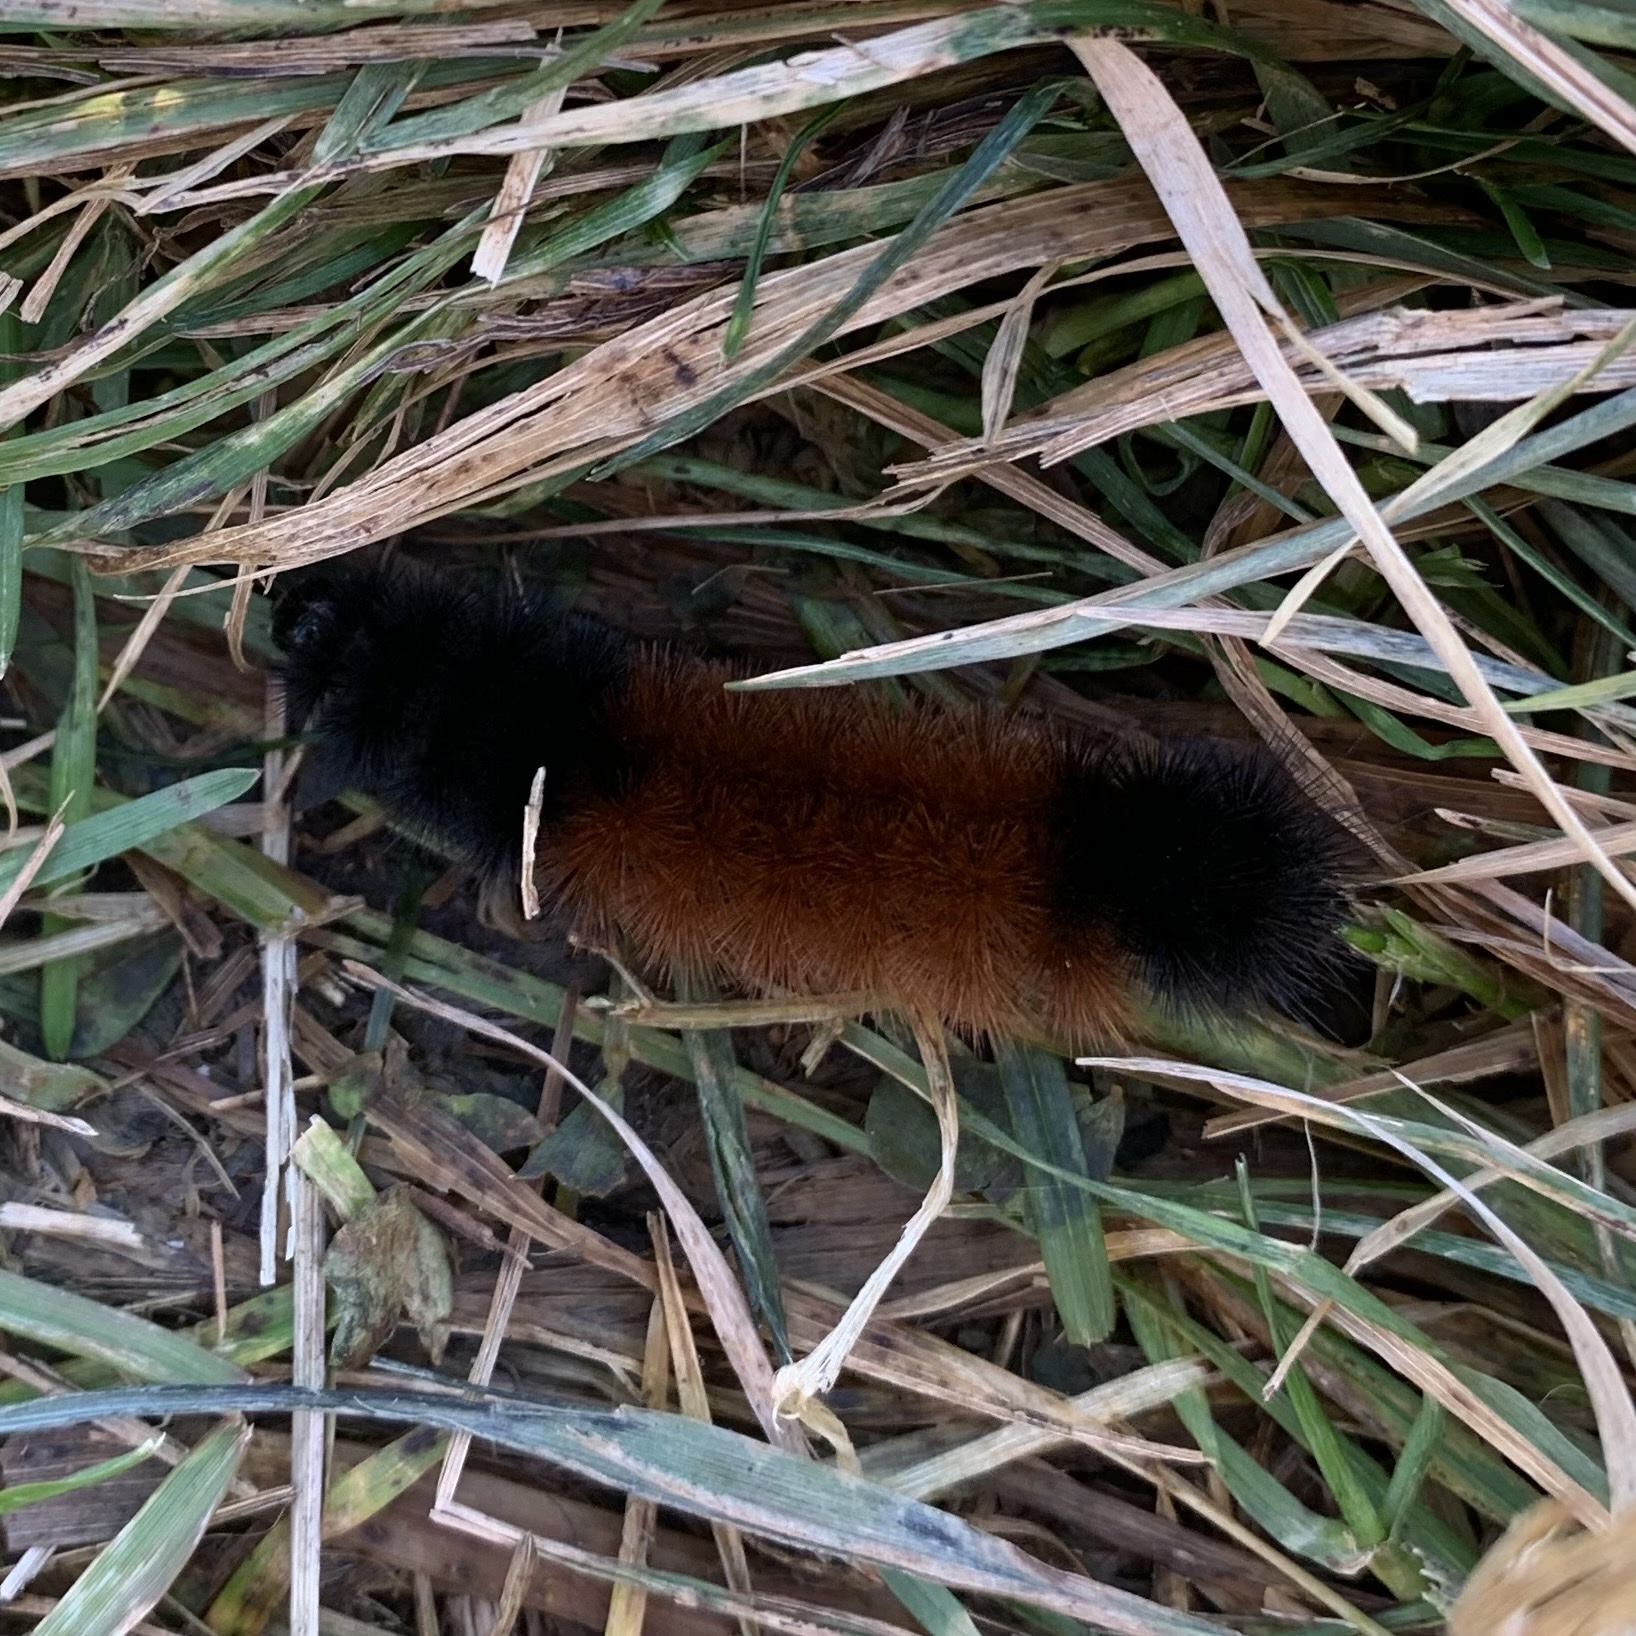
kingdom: Animalia
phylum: Arthropoda
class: Insecta
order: Lepidoptera
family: Erebidae
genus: Pyrrharctia
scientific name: Pyrrharctia isabella
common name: Isabella tiger moth
